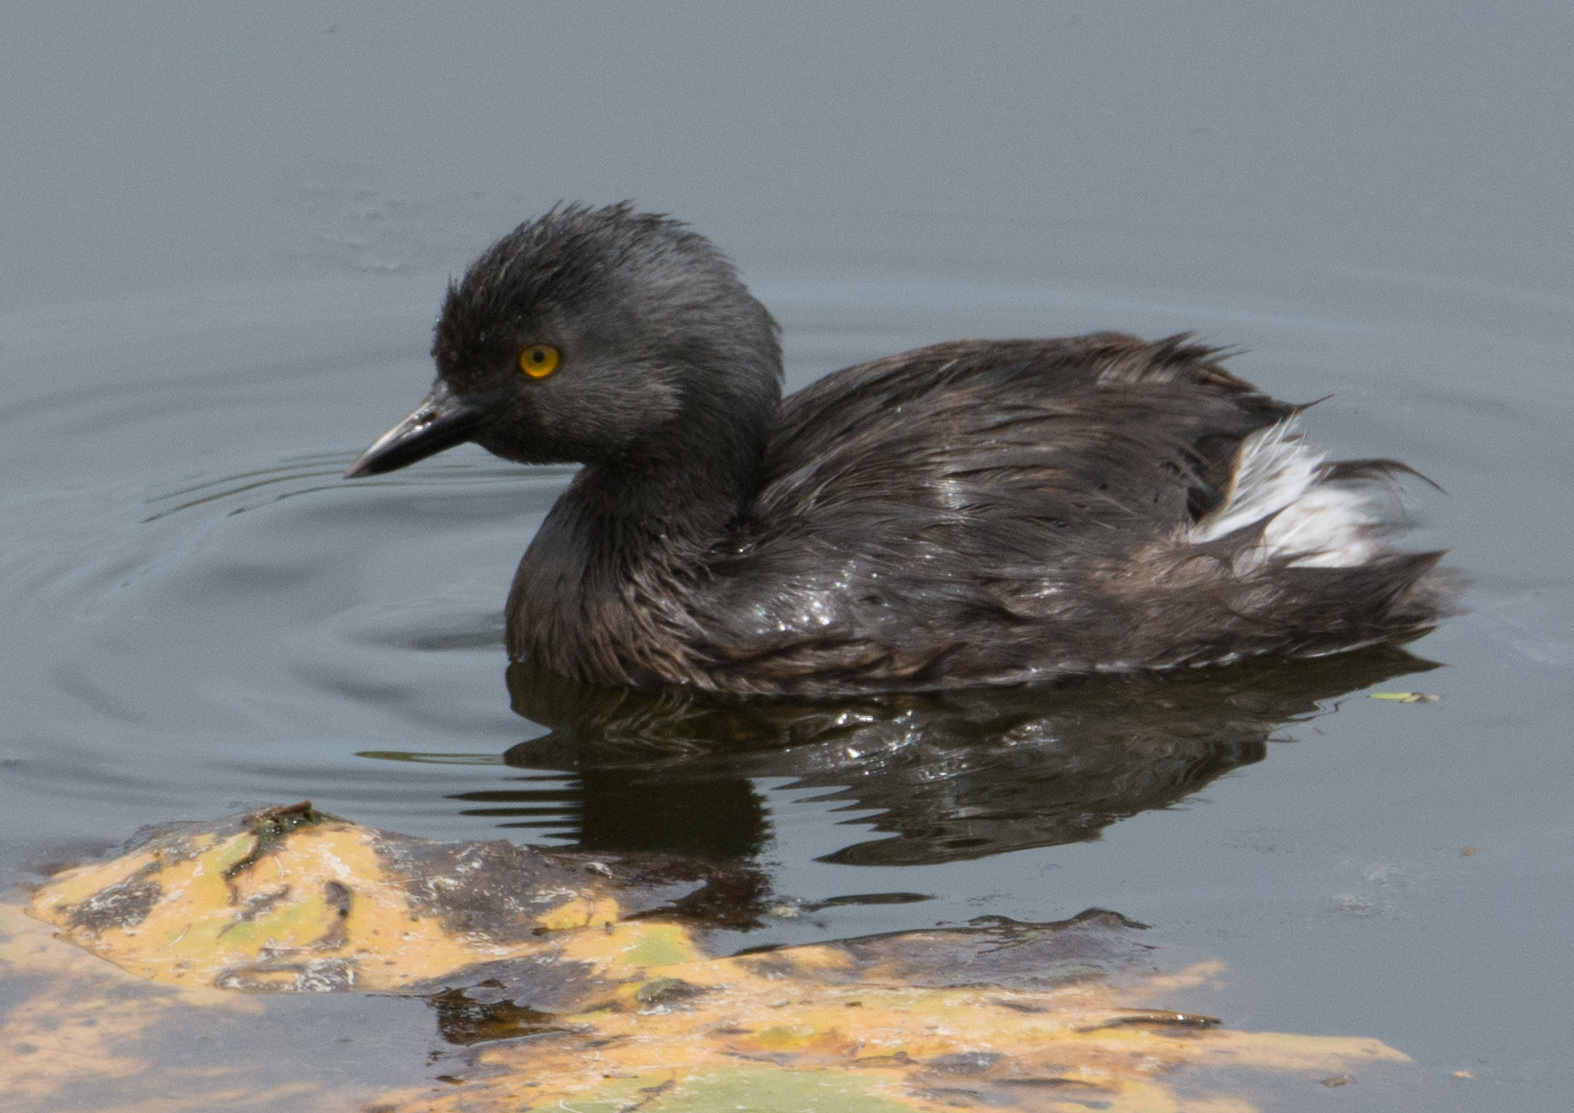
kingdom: Animalia
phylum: Chordata
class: Aves
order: Podicipediformes
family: Podicipedidae
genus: Tachybaptus
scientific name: Tachybaptus dominicus
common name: Least grebe
